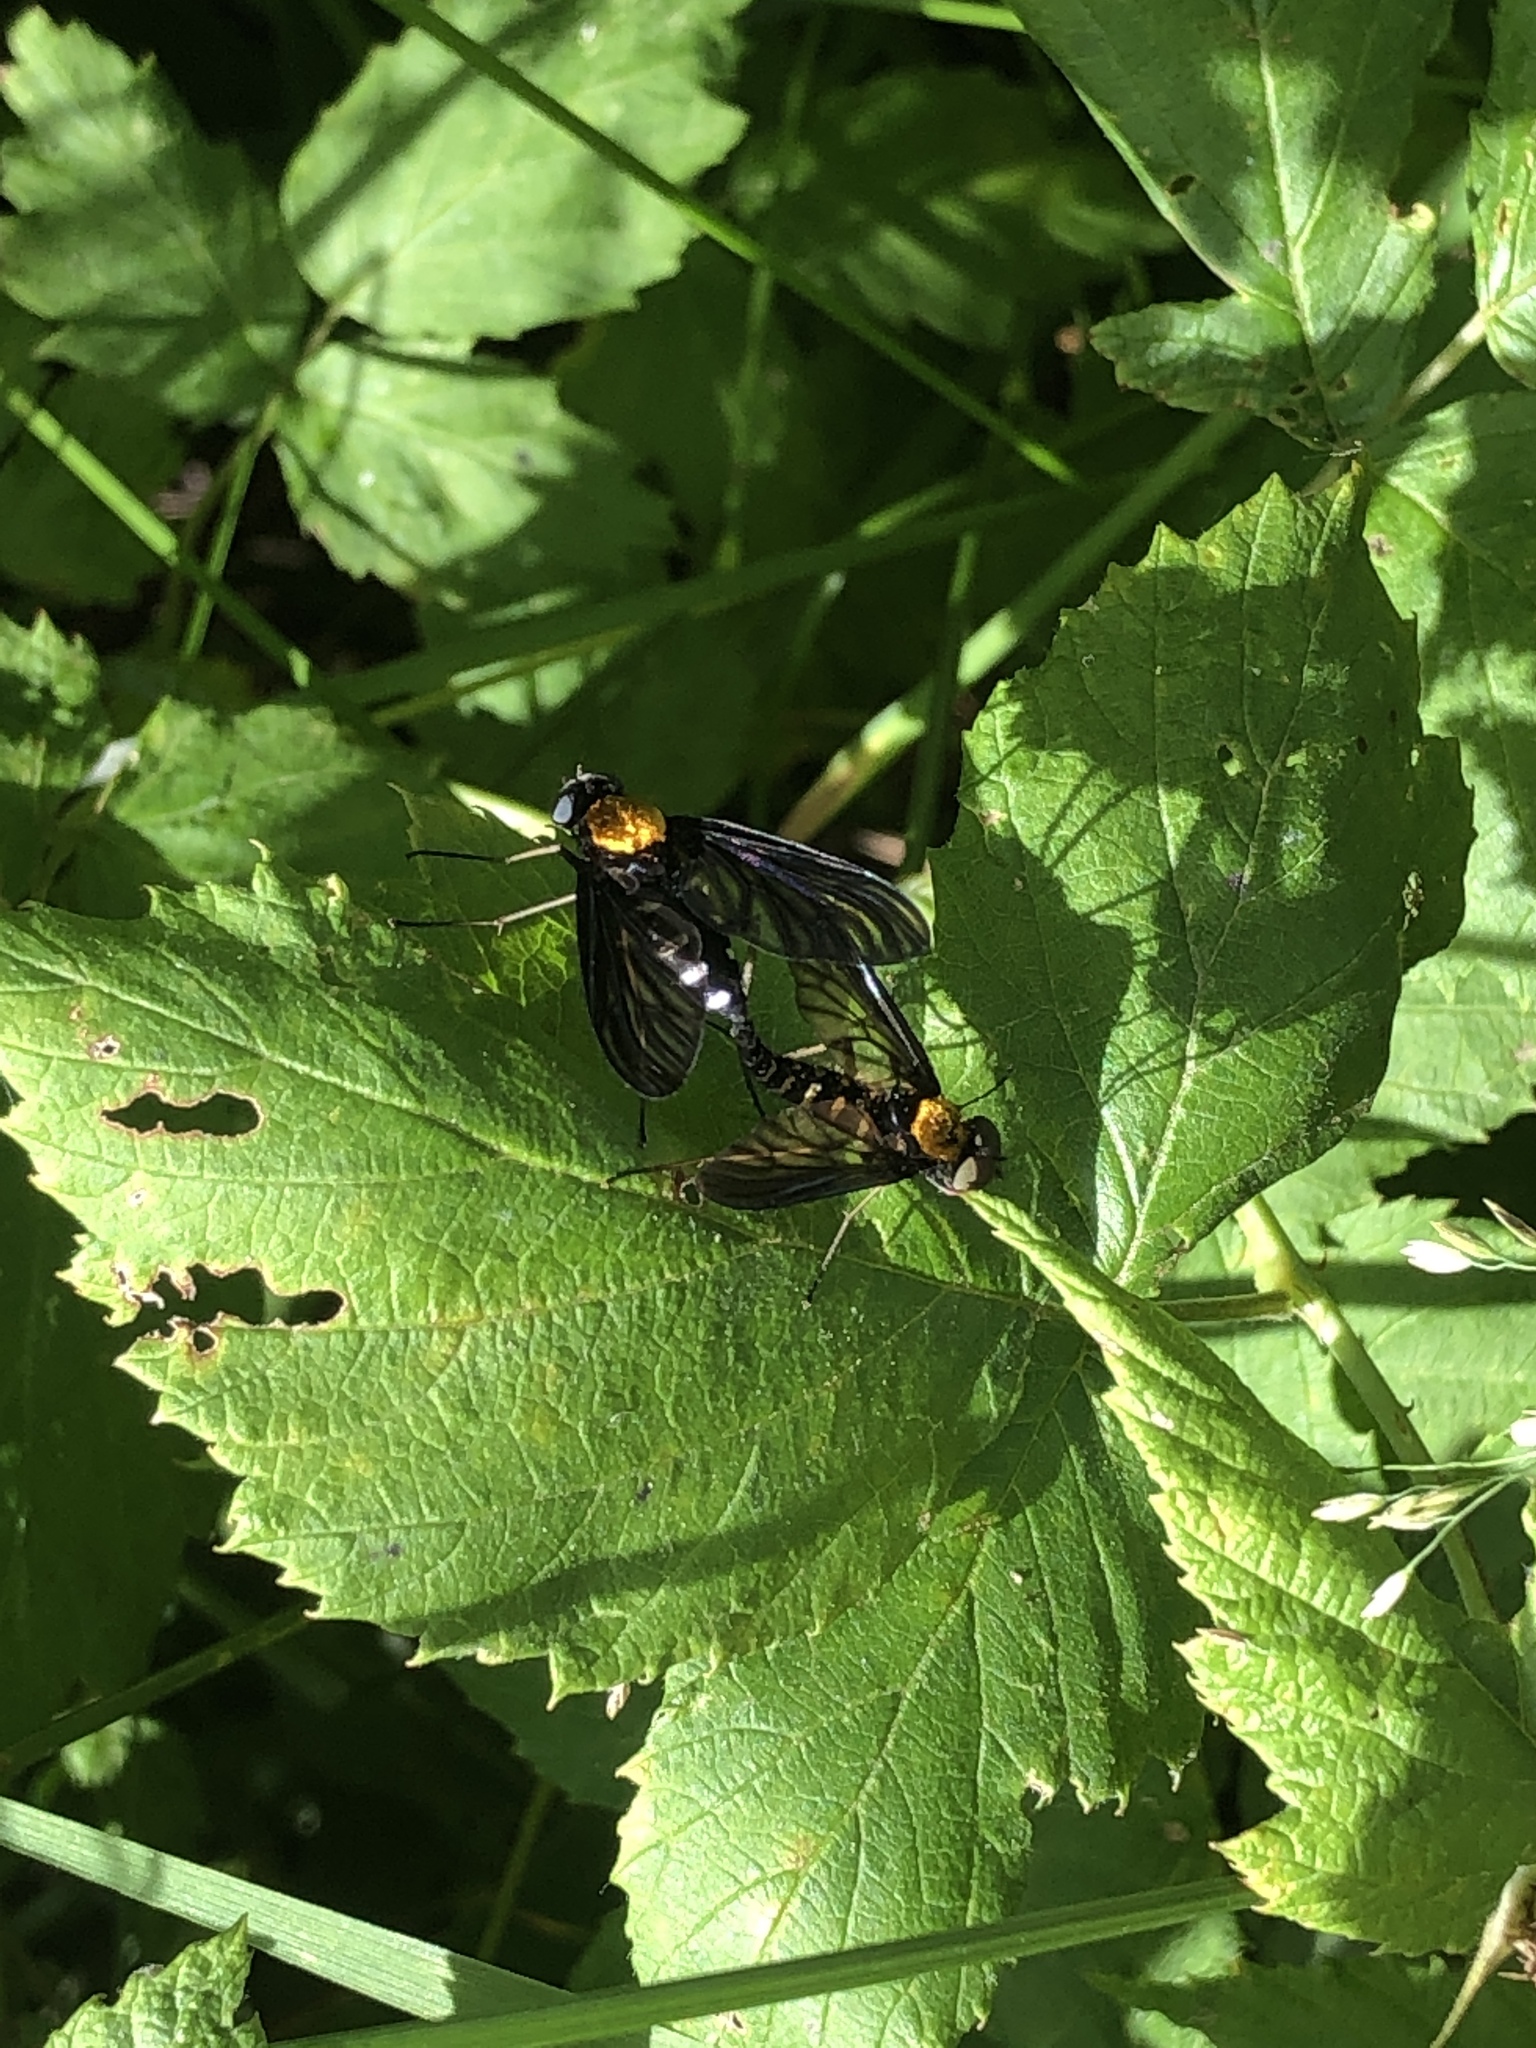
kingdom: Animalia
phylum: Arthropoda
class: Insecta
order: Diptera
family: Rhagionidae
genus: Chrysopilus
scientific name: Chrysopilus thoracicus
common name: Golden-backed snipe fly
